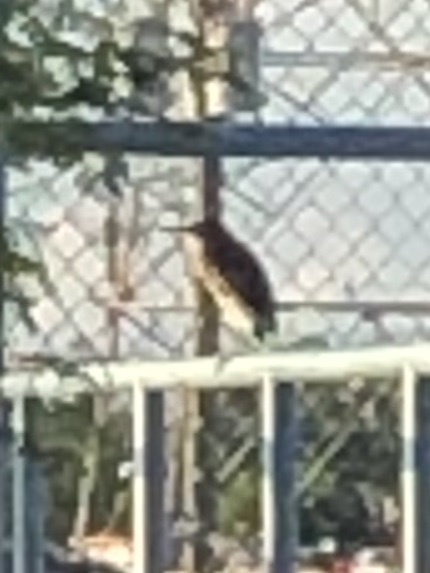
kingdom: Animalia
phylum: Chordata
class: Aves
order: Pelecaniformes
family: Ardeidae
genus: Butorides
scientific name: Butorides virescens
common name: Green heron
